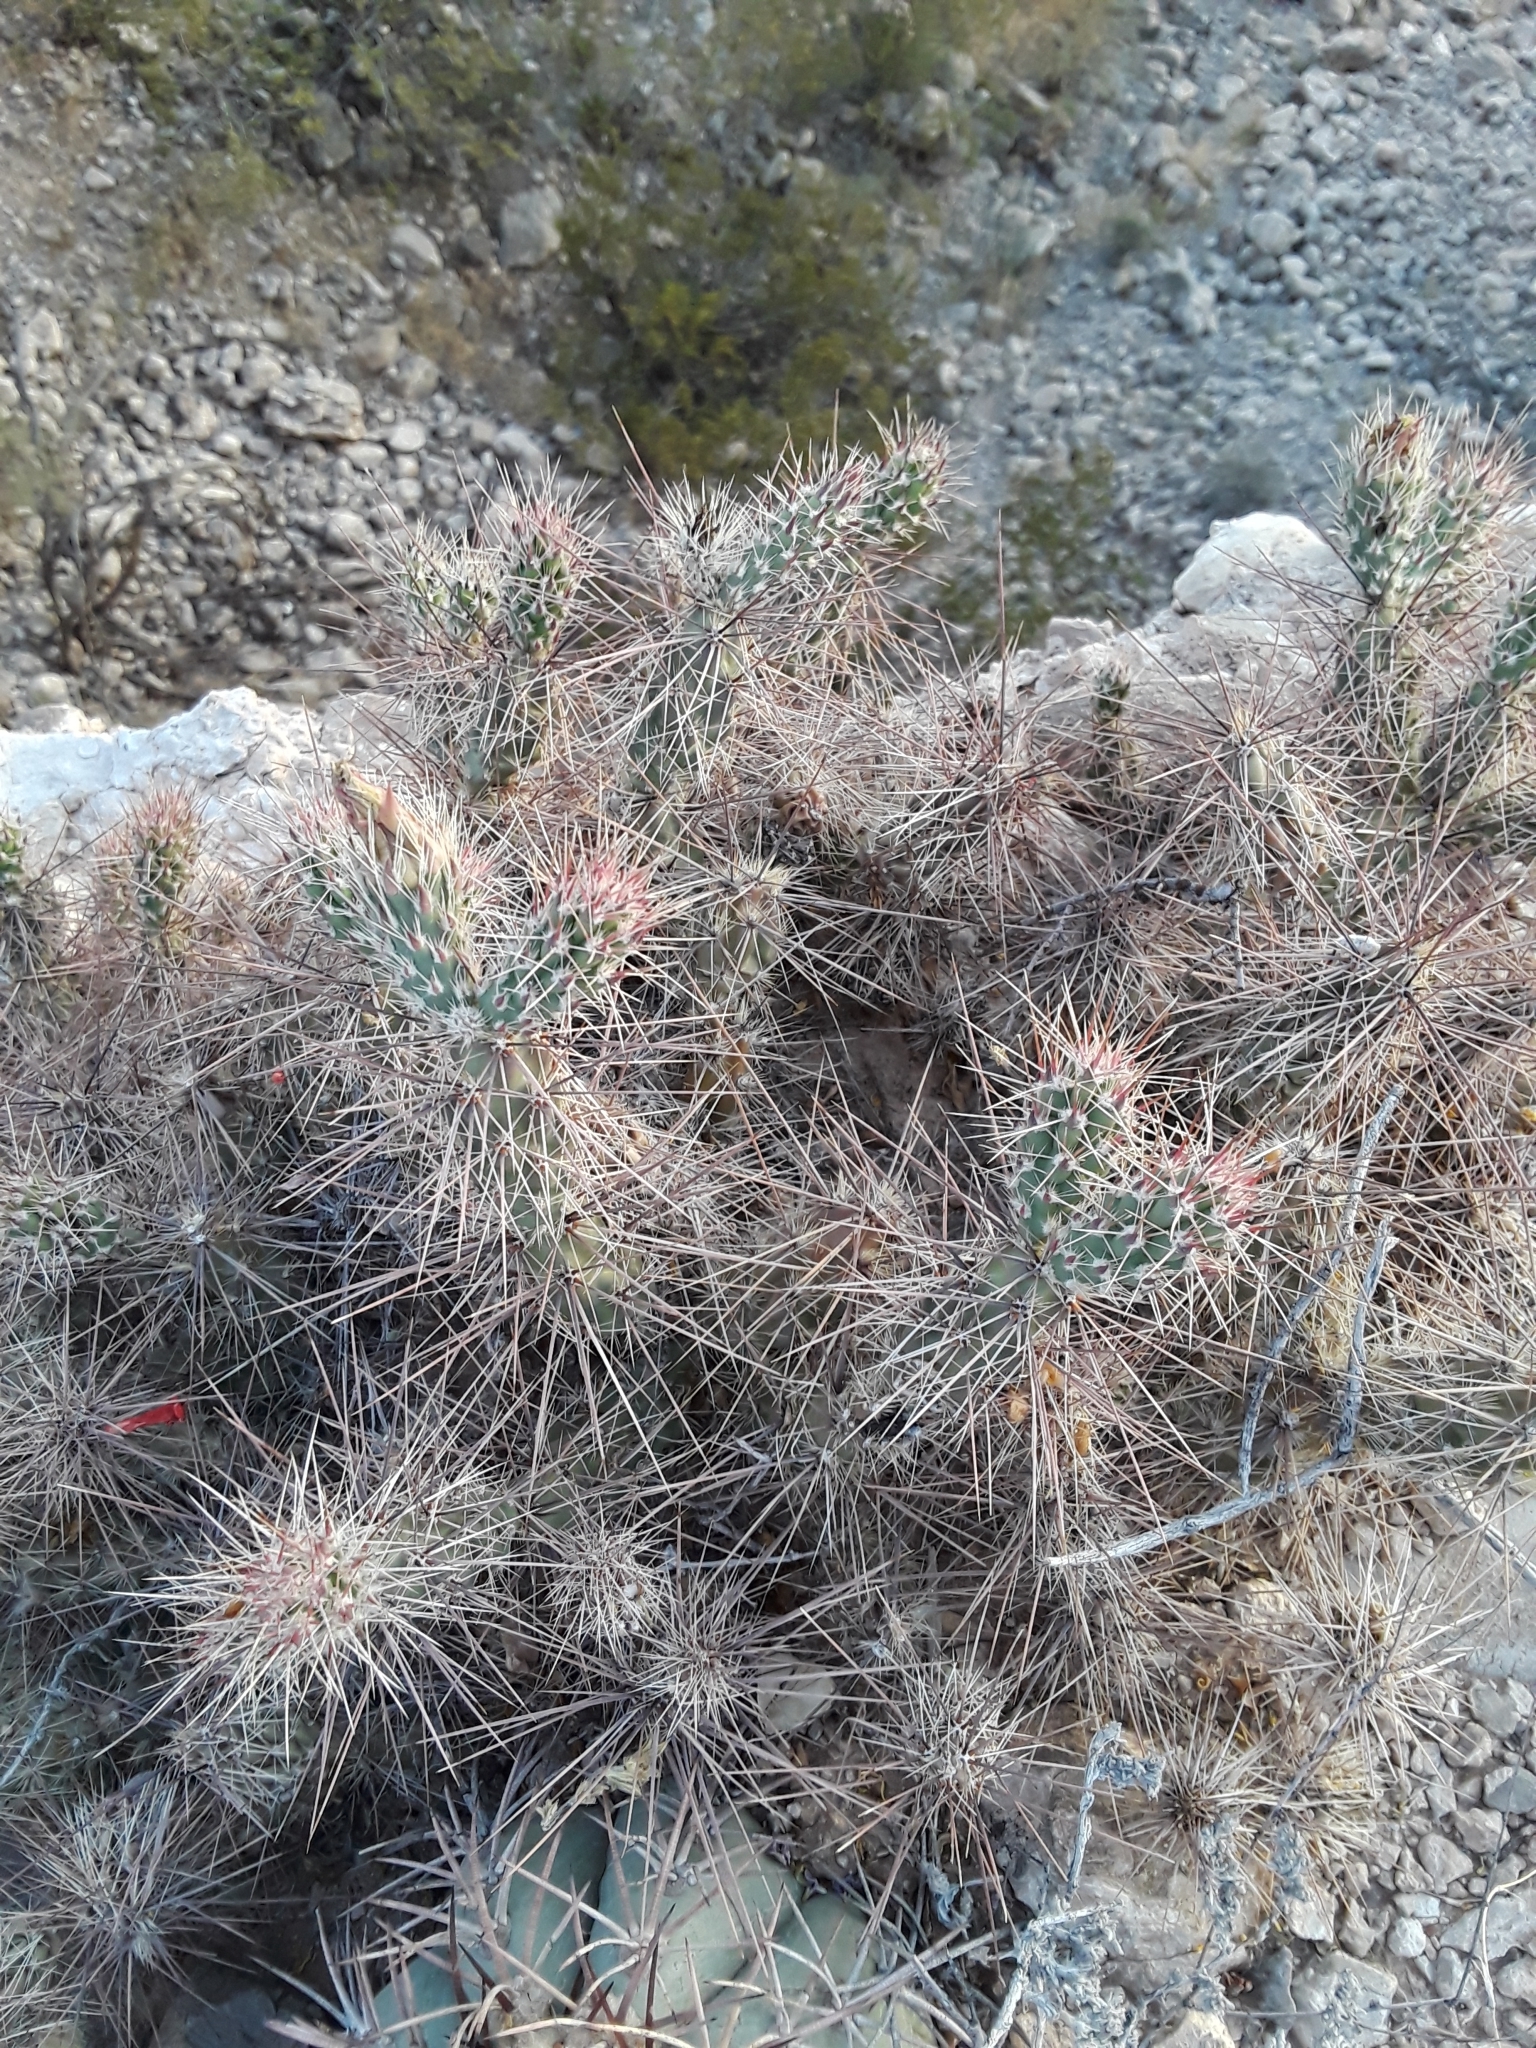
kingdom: Plantae
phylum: Tracheophyta
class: Magnoliopsida
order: Caryophyllales
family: Cactaceae
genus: Grusonia
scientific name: Grusonia grahamii
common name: Graham's club cactus
